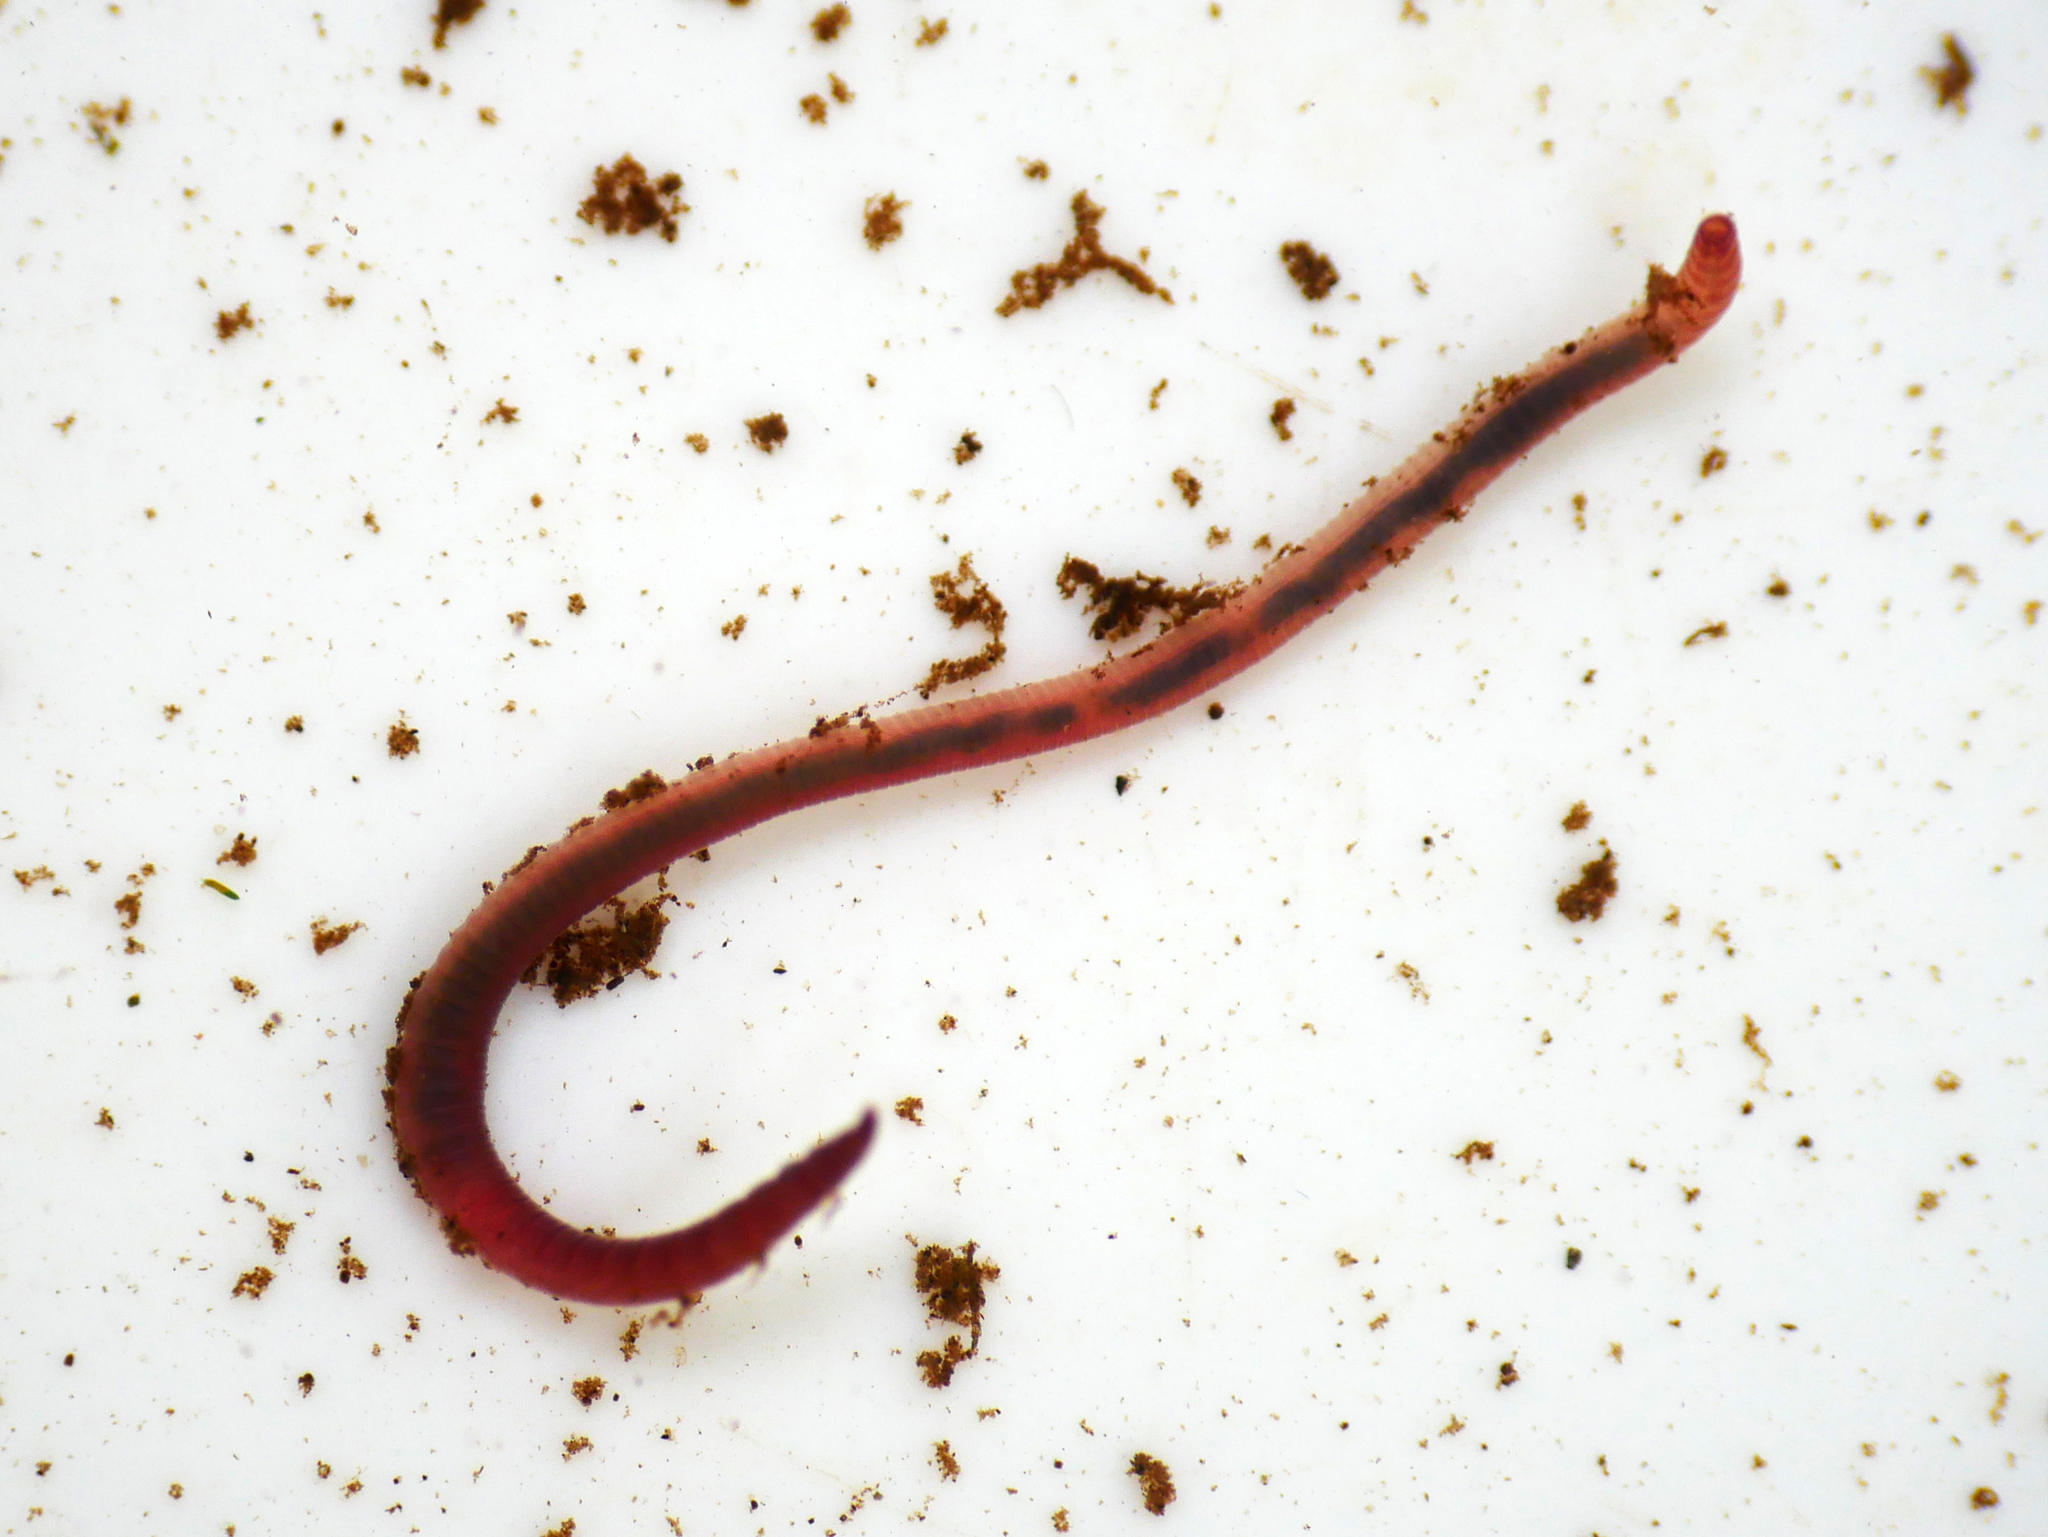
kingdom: Animalia
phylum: Annelida
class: Clitellata
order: Crassiclitellata
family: Lumbricidae
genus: Eiseniella
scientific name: Eiseniella tetraedra
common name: Square-tailed worm
